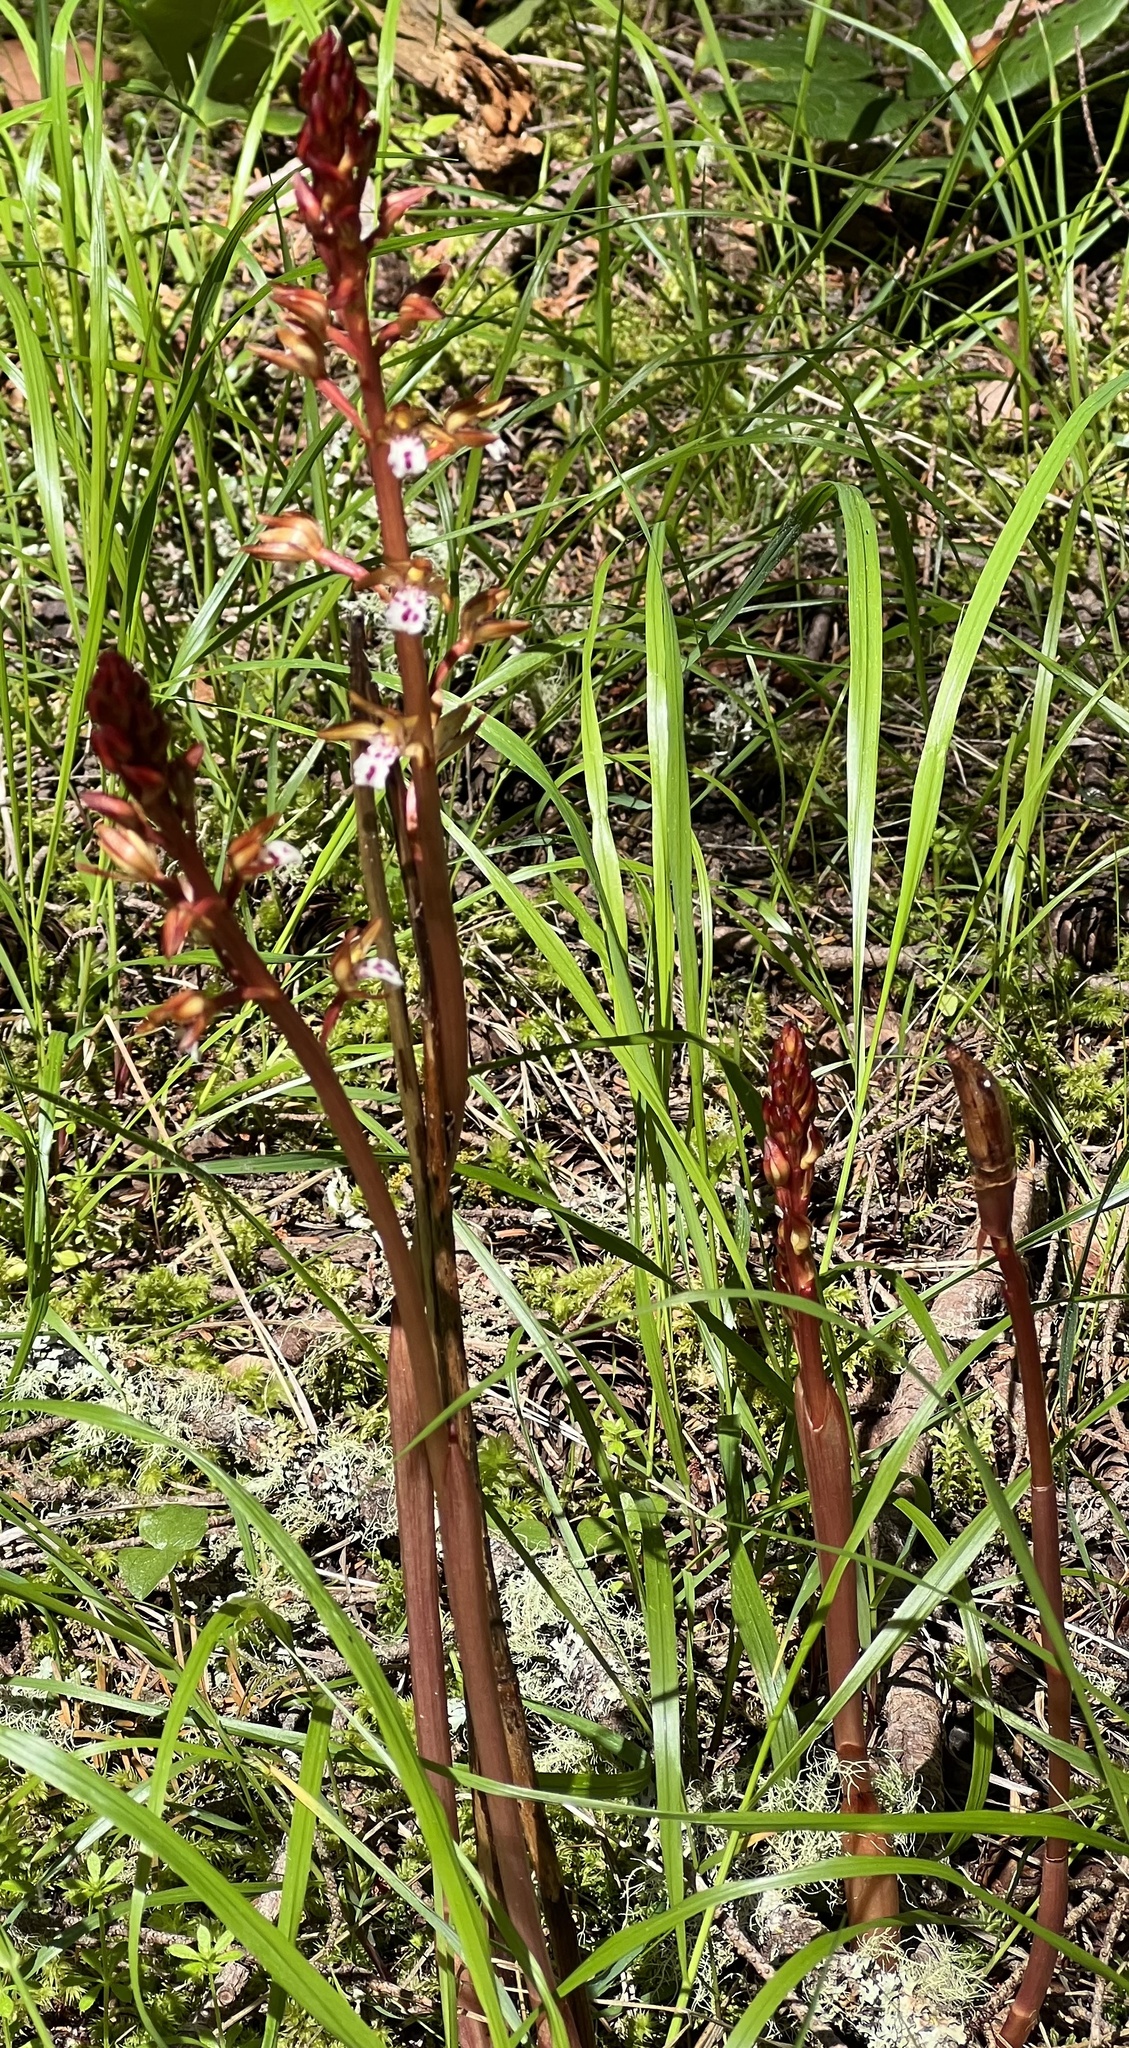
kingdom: Plantae
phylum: Tracheophyta
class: Liliopsida
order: Asparagales
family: Orchidaceae
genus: Corallorhiza
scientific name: Corallorhiza maculata
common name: Spotted coralroot
